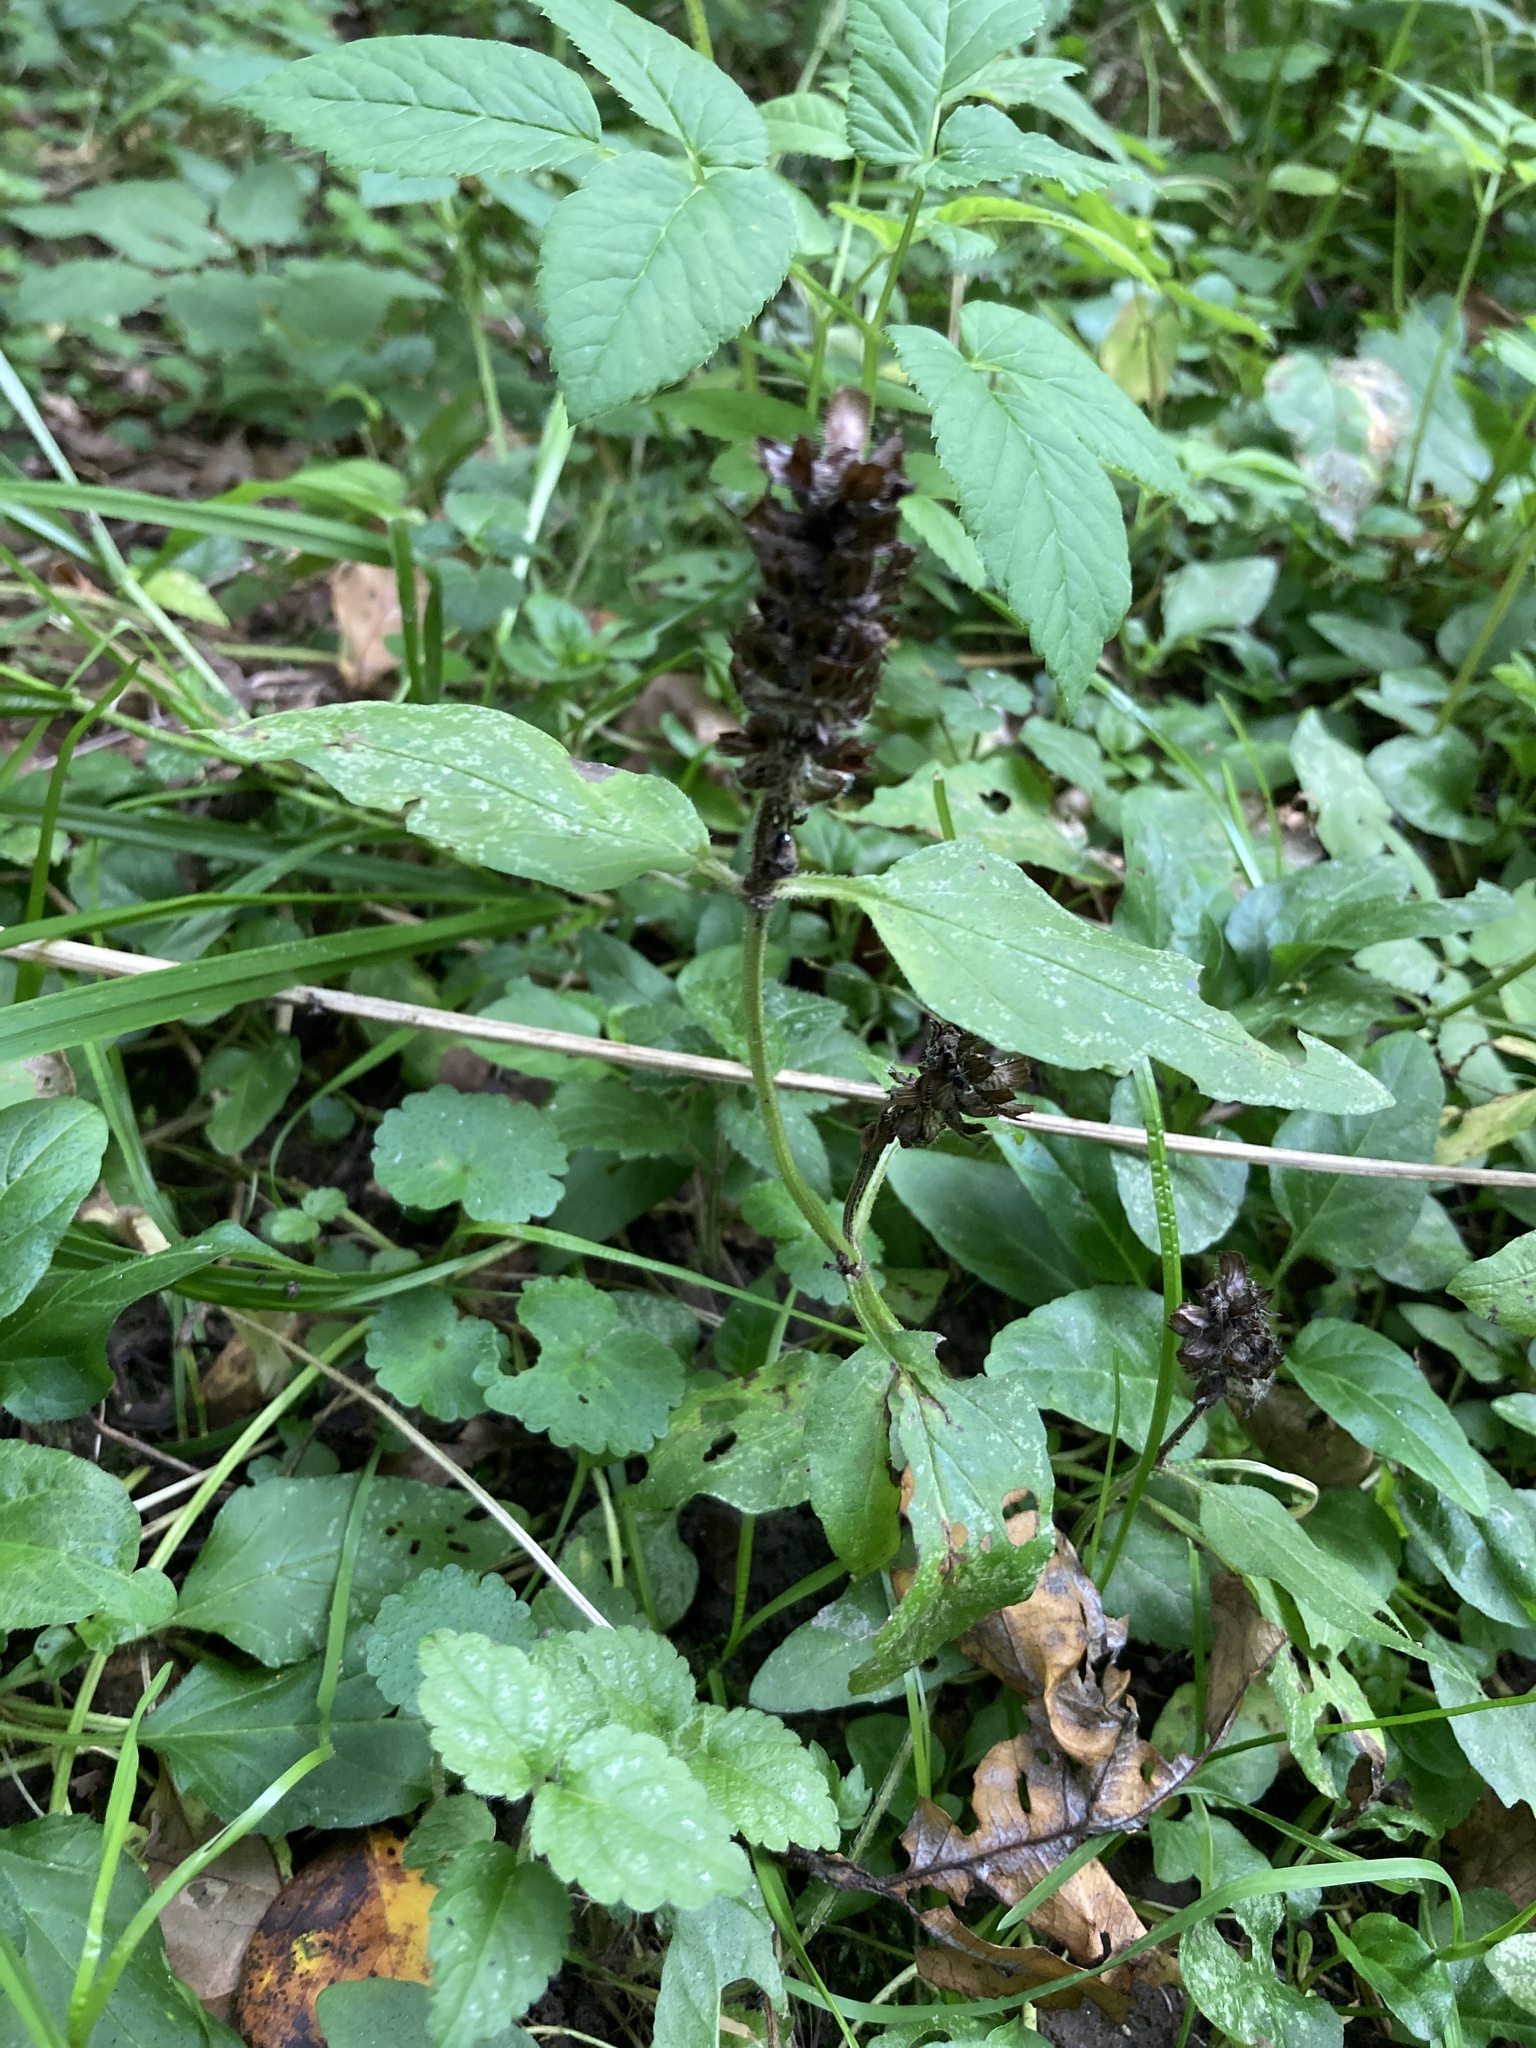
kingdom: Plantae
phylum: Tracheophyta
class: Magnoliopsida
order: Lamiales
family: Lamiaceae
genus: Prunella
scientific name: Prunella vulgaris
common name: Heal-all
